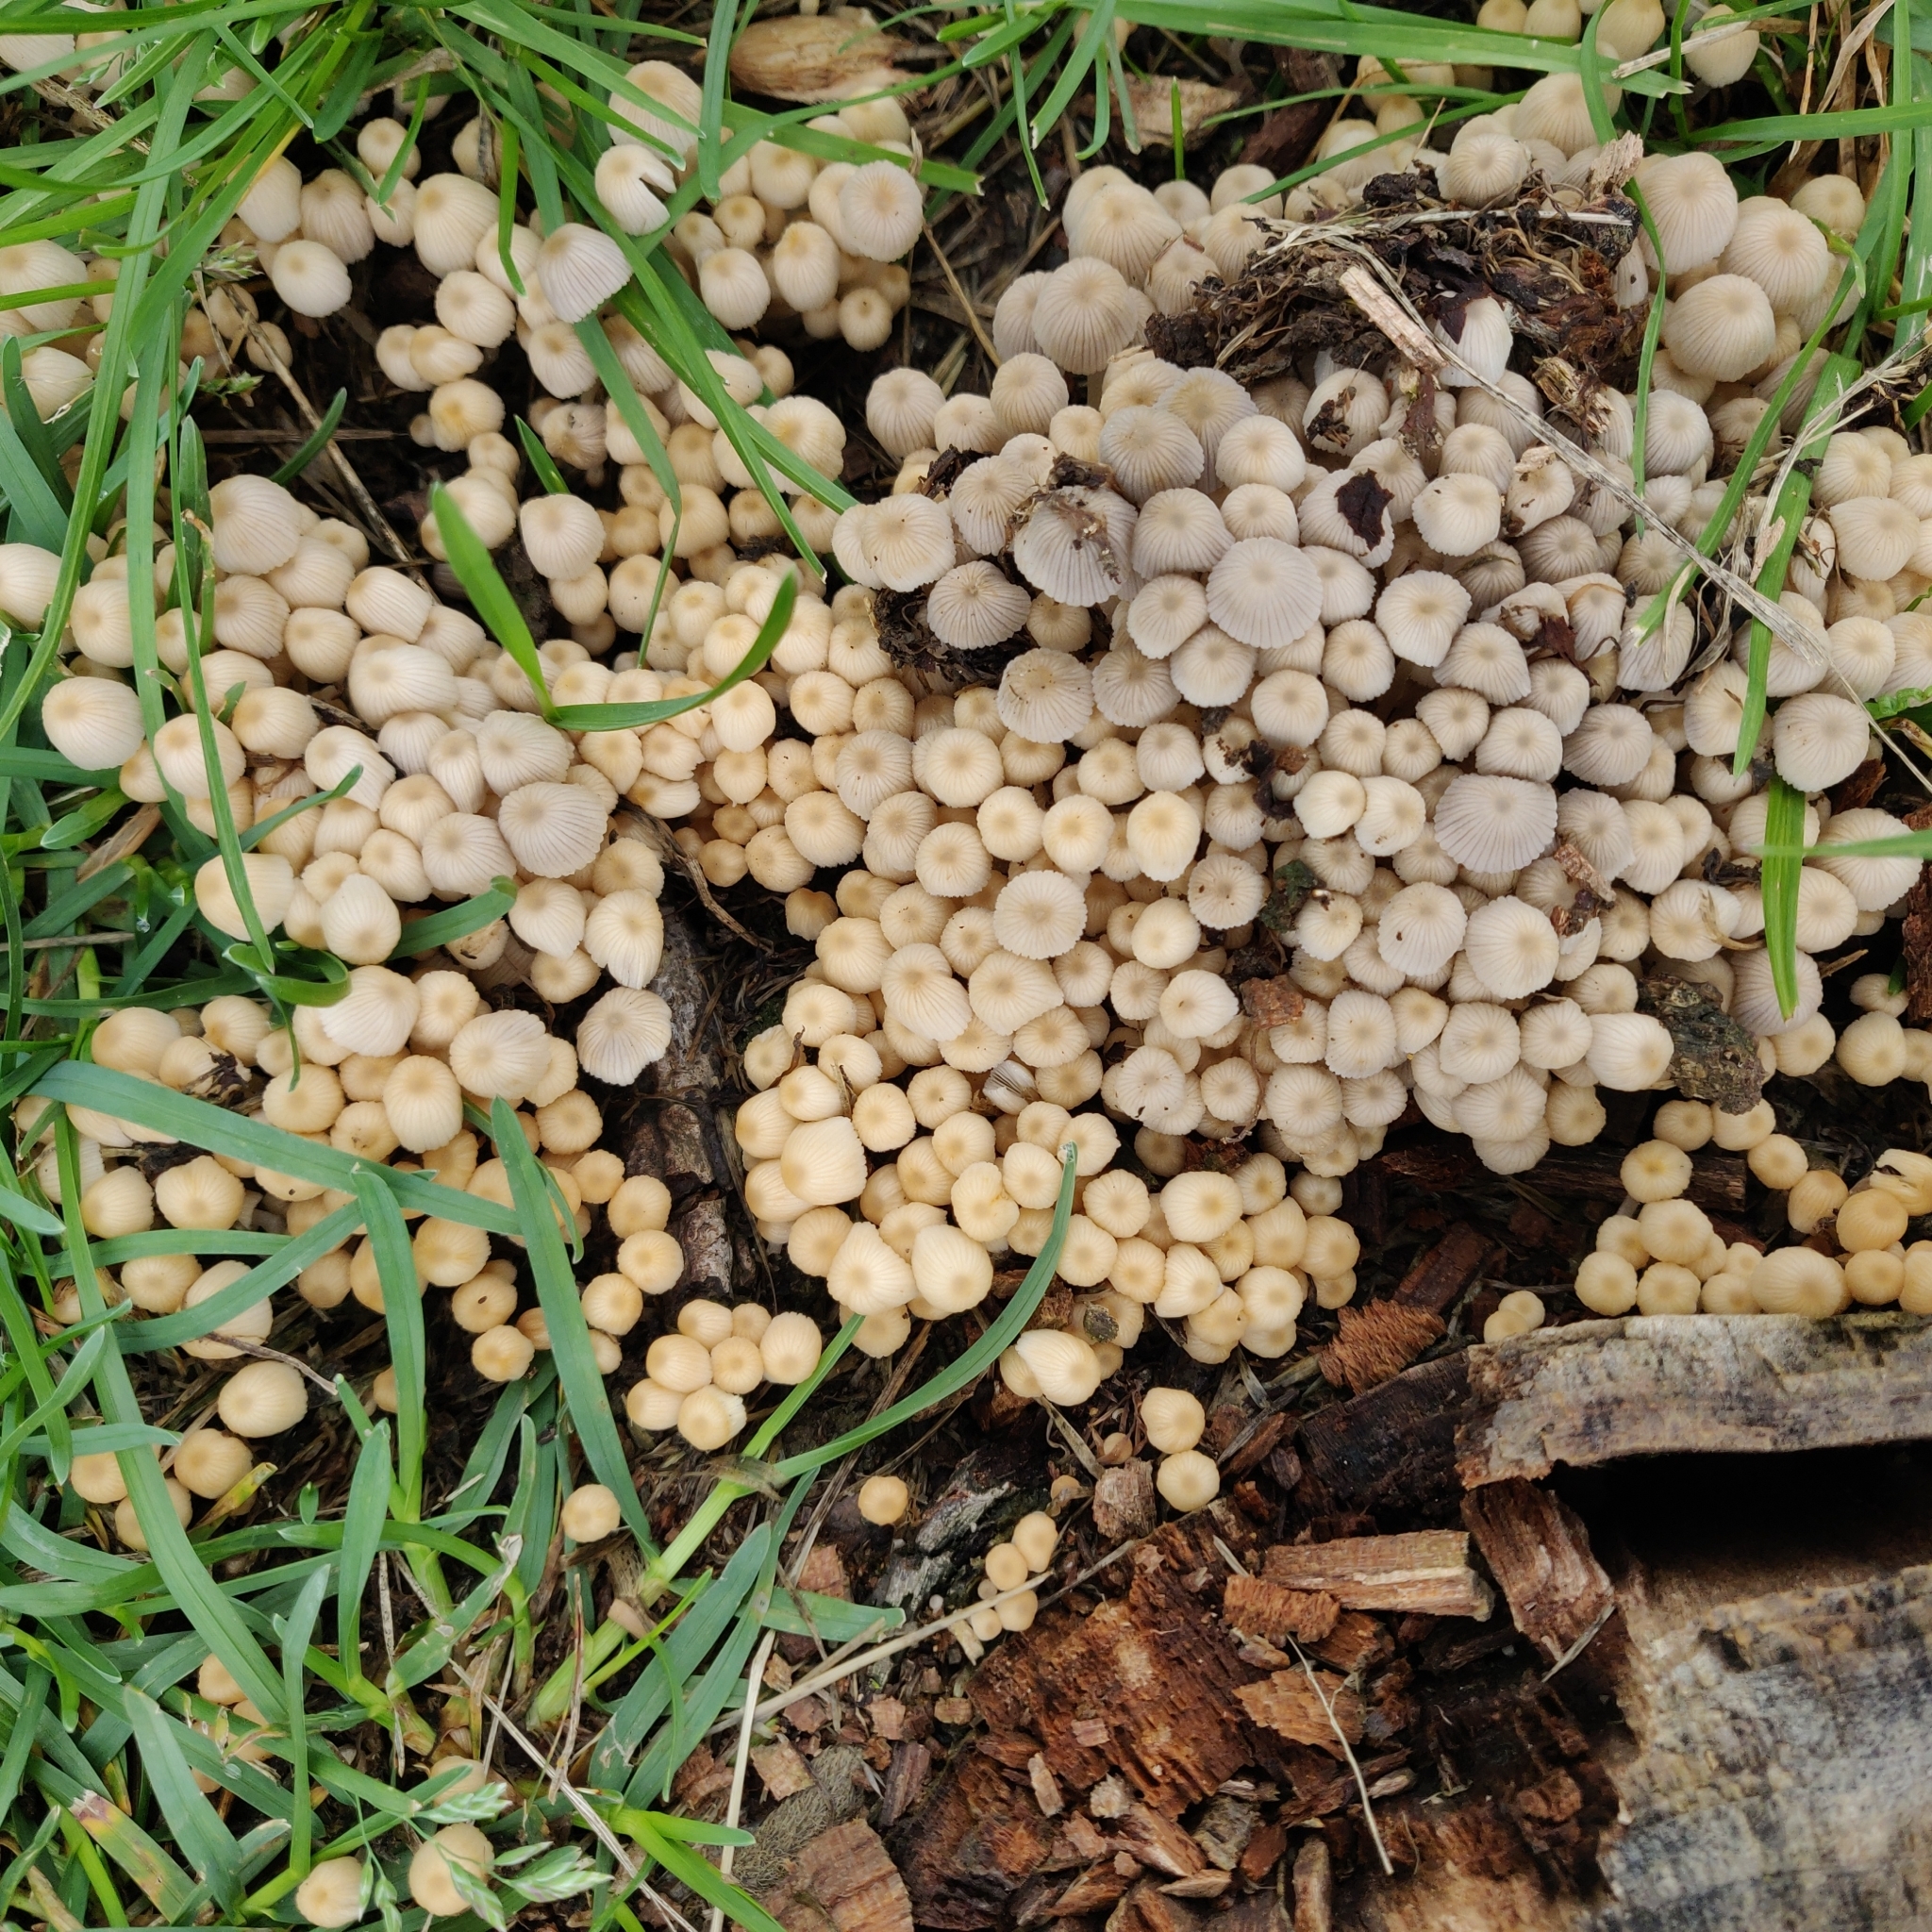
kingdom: Fungi
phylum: Basidiomycota
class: Agaricomycetes
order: Agaricales
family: Psathyrellaceae
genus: Coprinellus
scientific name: Coprinellus disseminatus
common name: Fairies' bonnets
